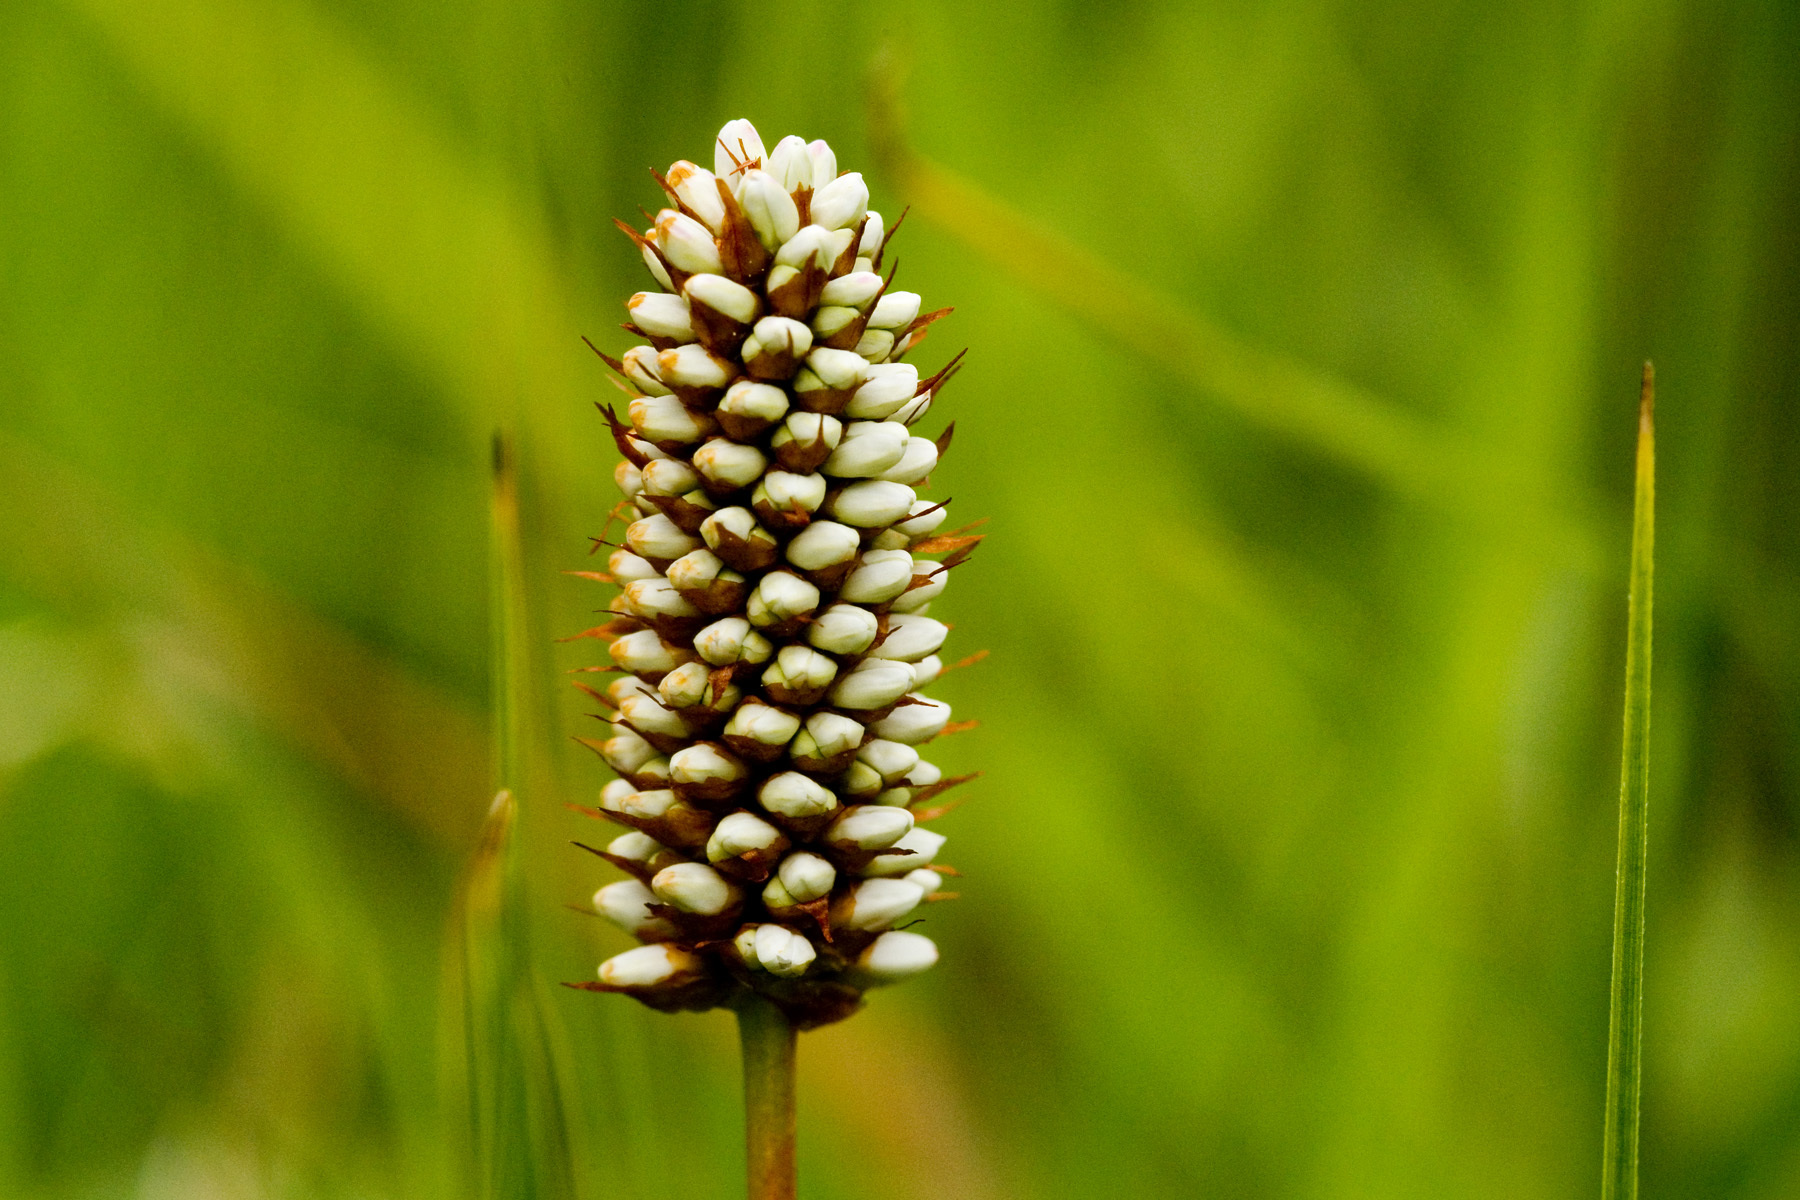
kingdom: Plantae
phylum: Tracheophyta
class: Magnoliopsida
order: Caryophyllales
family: Polygonaceae
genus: Bistorta
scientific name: Bistorta bistortoides
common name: American bistort
